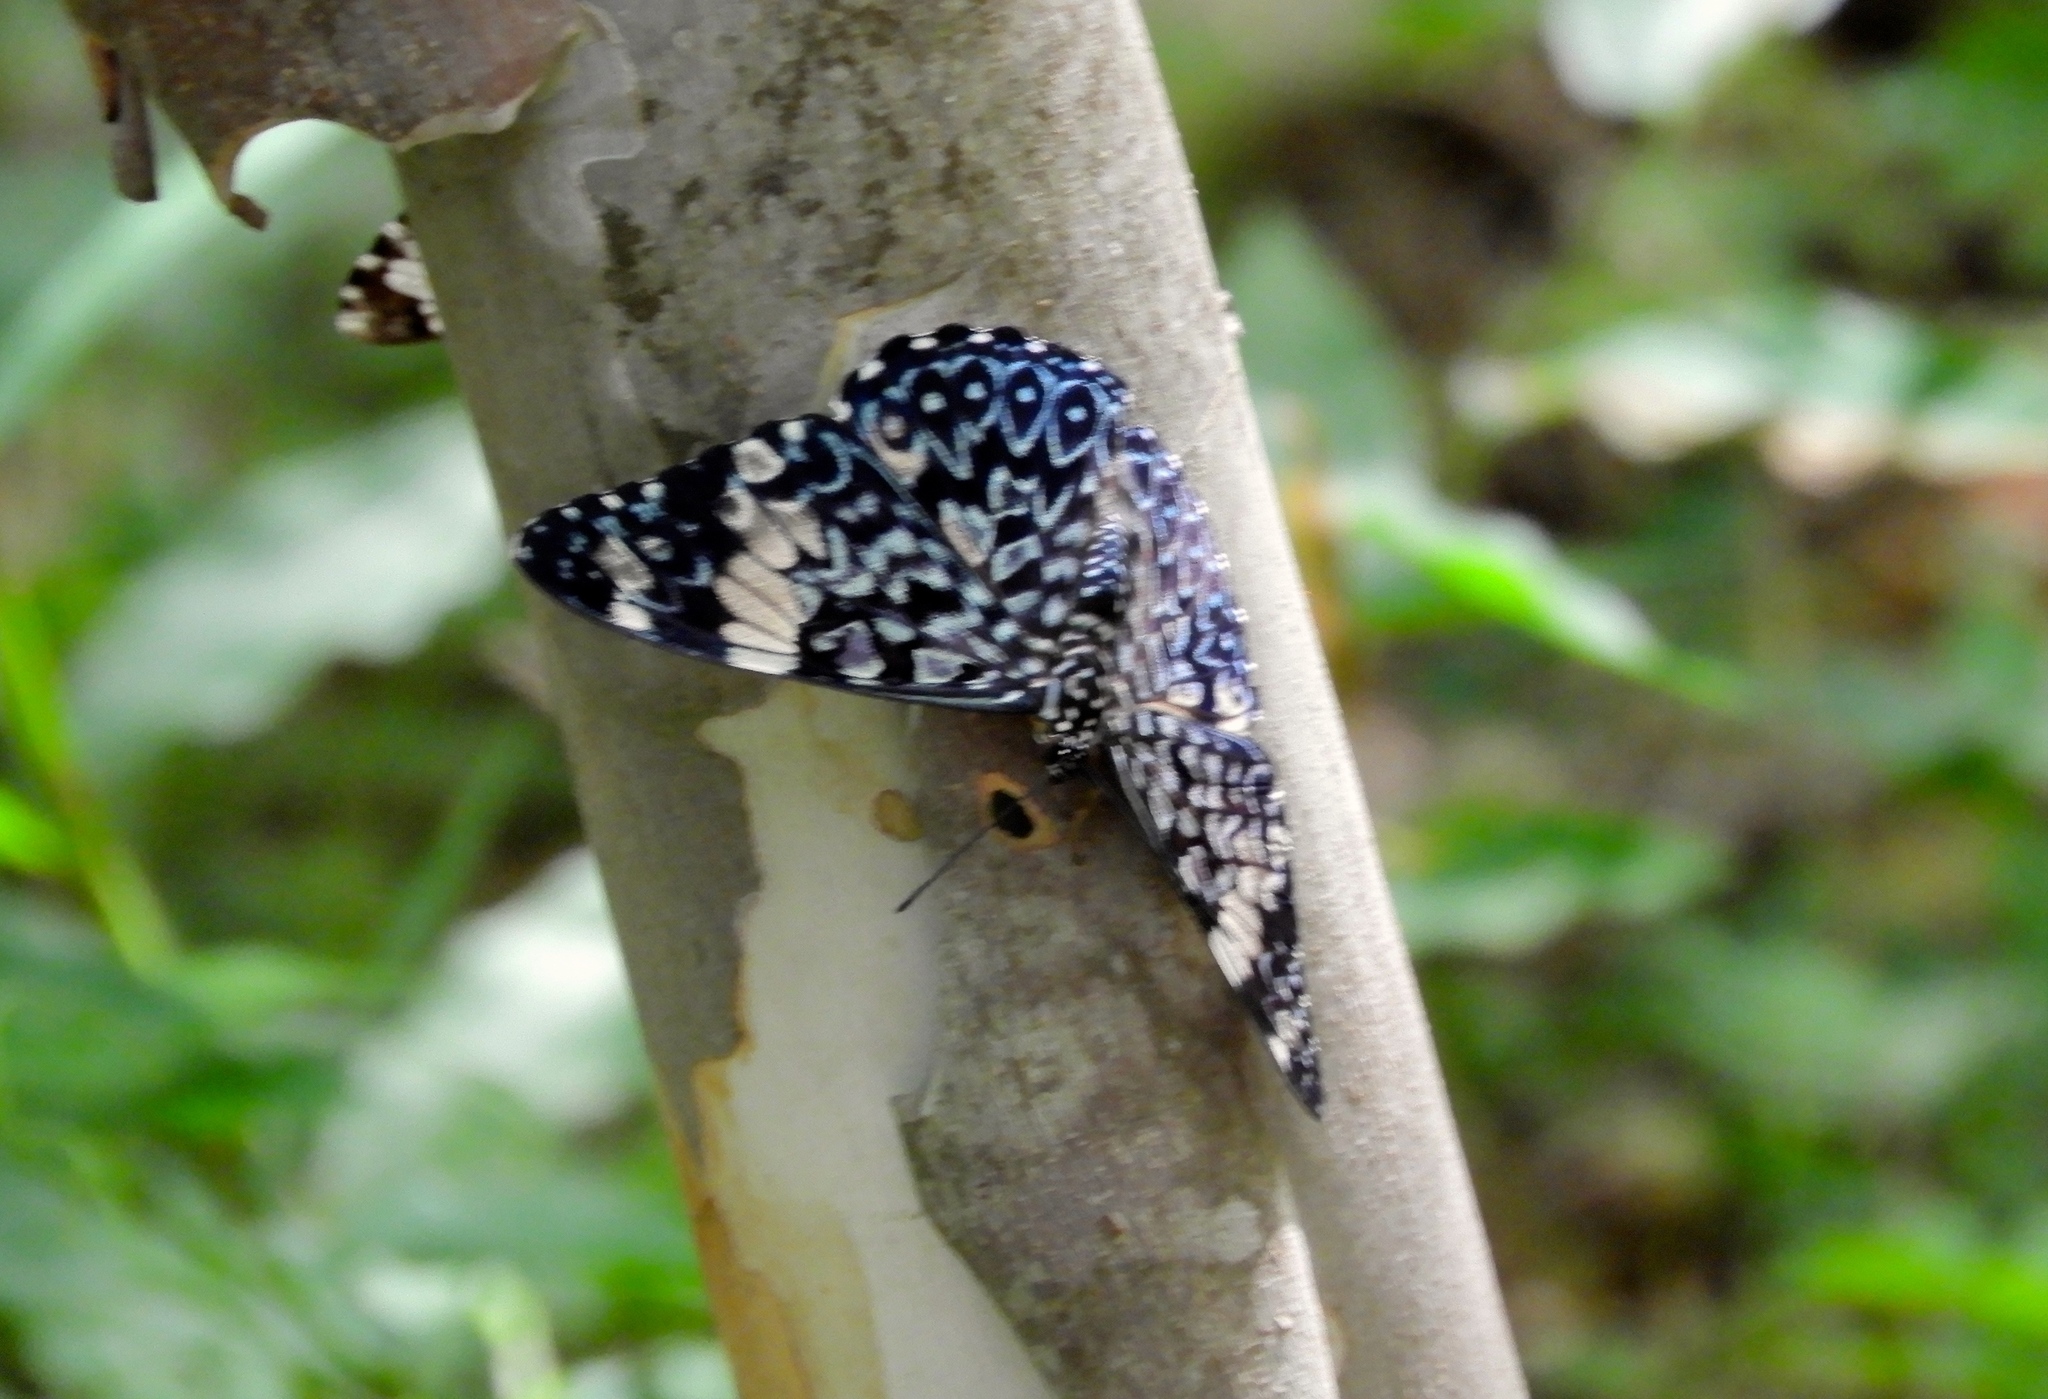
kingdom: Animalia
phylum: Arthropoda
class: Insecta
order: Lepidoptera
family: Nymphalidae
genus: Hamadryas
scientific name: Hamadryas amphinome
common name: Red cracker
